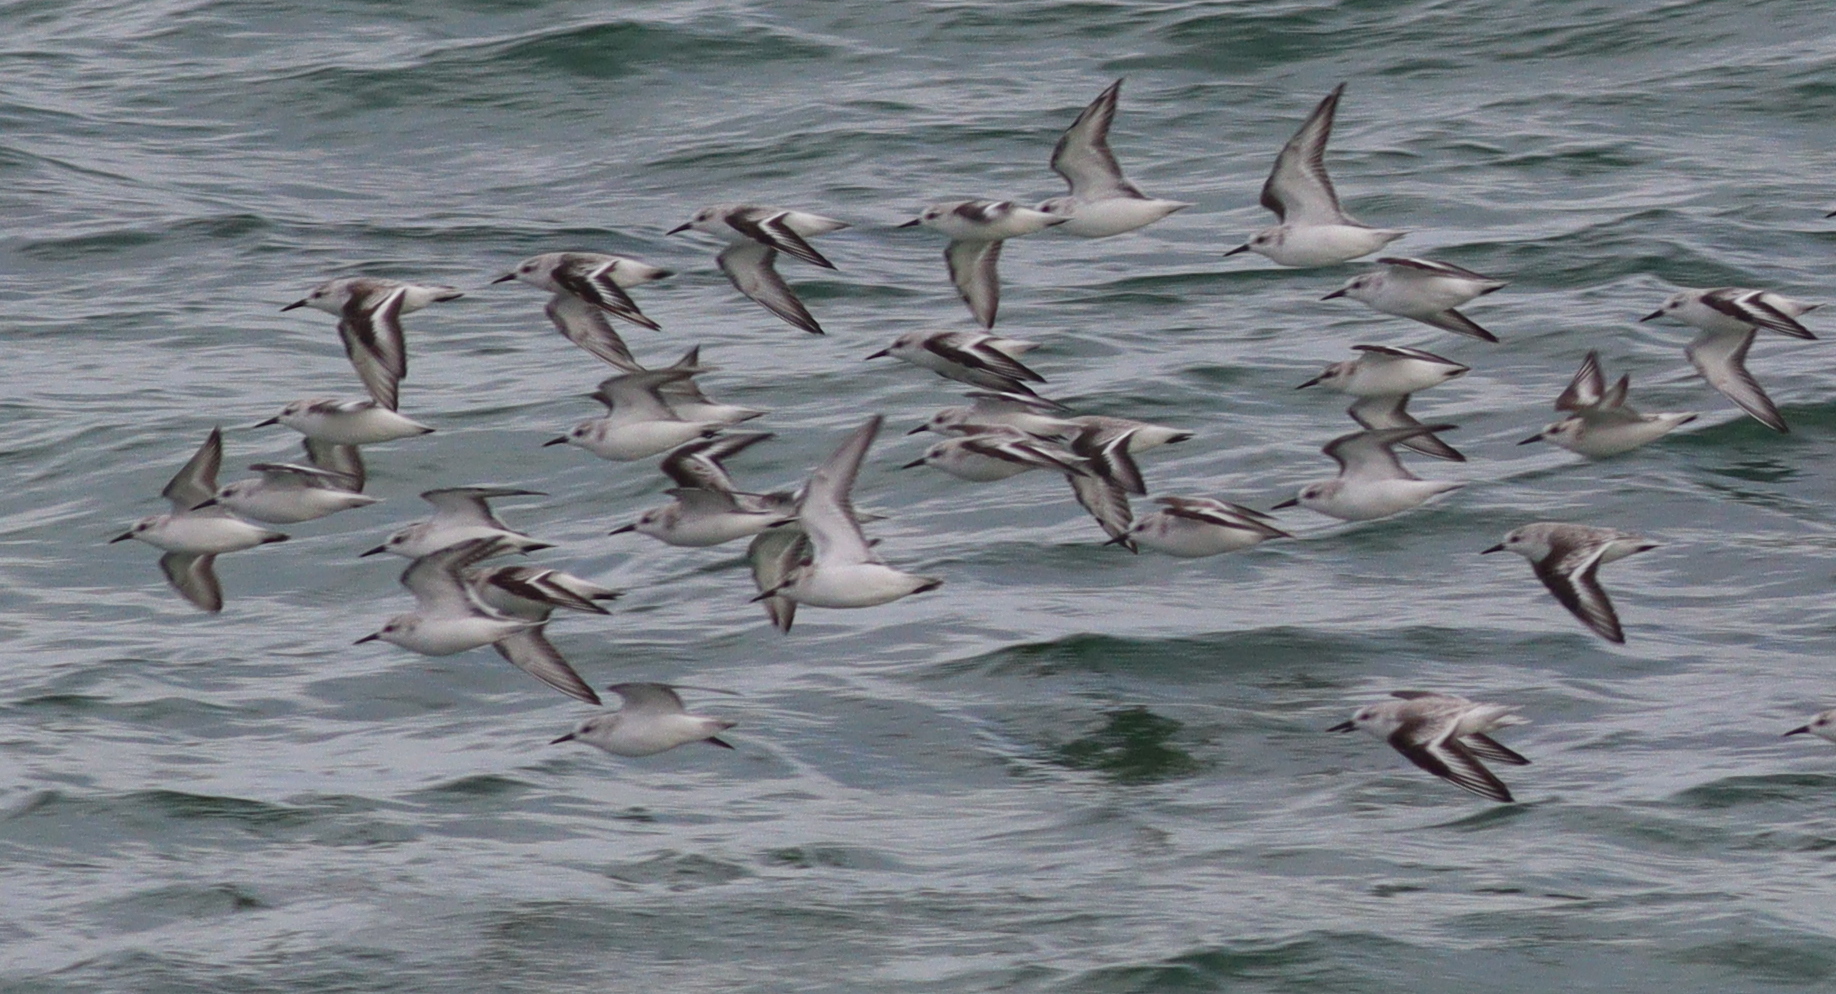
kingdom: Animalia
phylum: Chordata
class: Aves
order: Charadriiformes
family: Scolopacidae
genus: Calidris
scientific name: Calidris alba
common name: Sanderling
